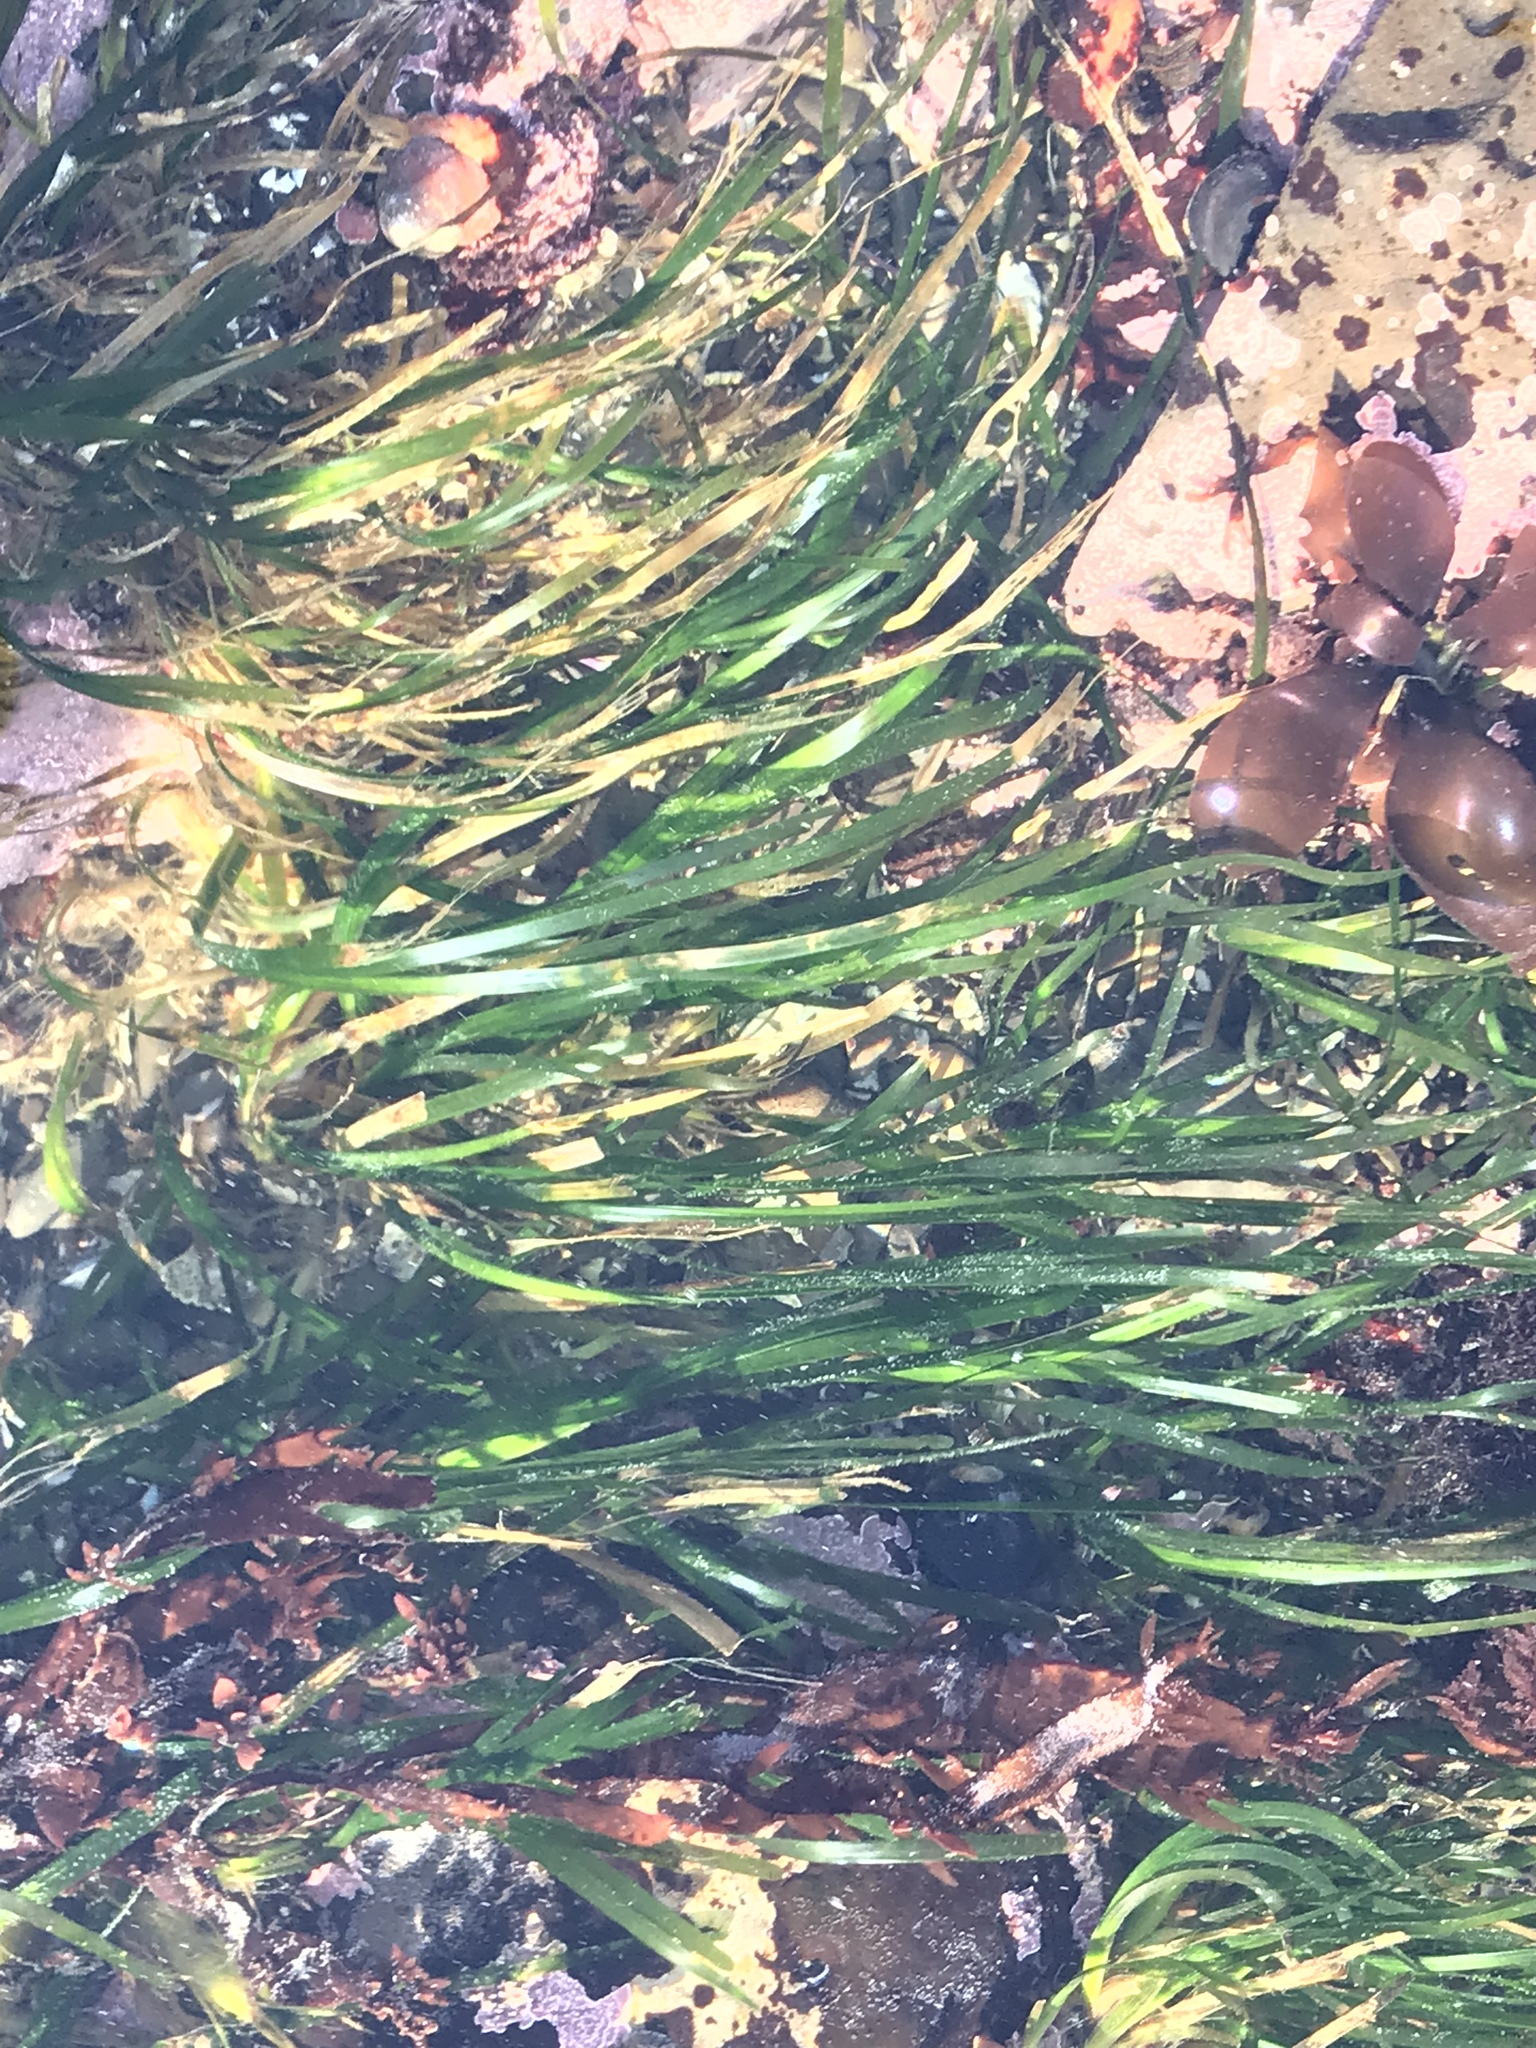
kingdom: Plantae
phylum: Tracheophyta
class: Liliopsida
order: Alismatales
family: Zosteraceae
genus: Phyllospadix
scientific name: Phyllospadix scouleri
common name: Species code: ps
